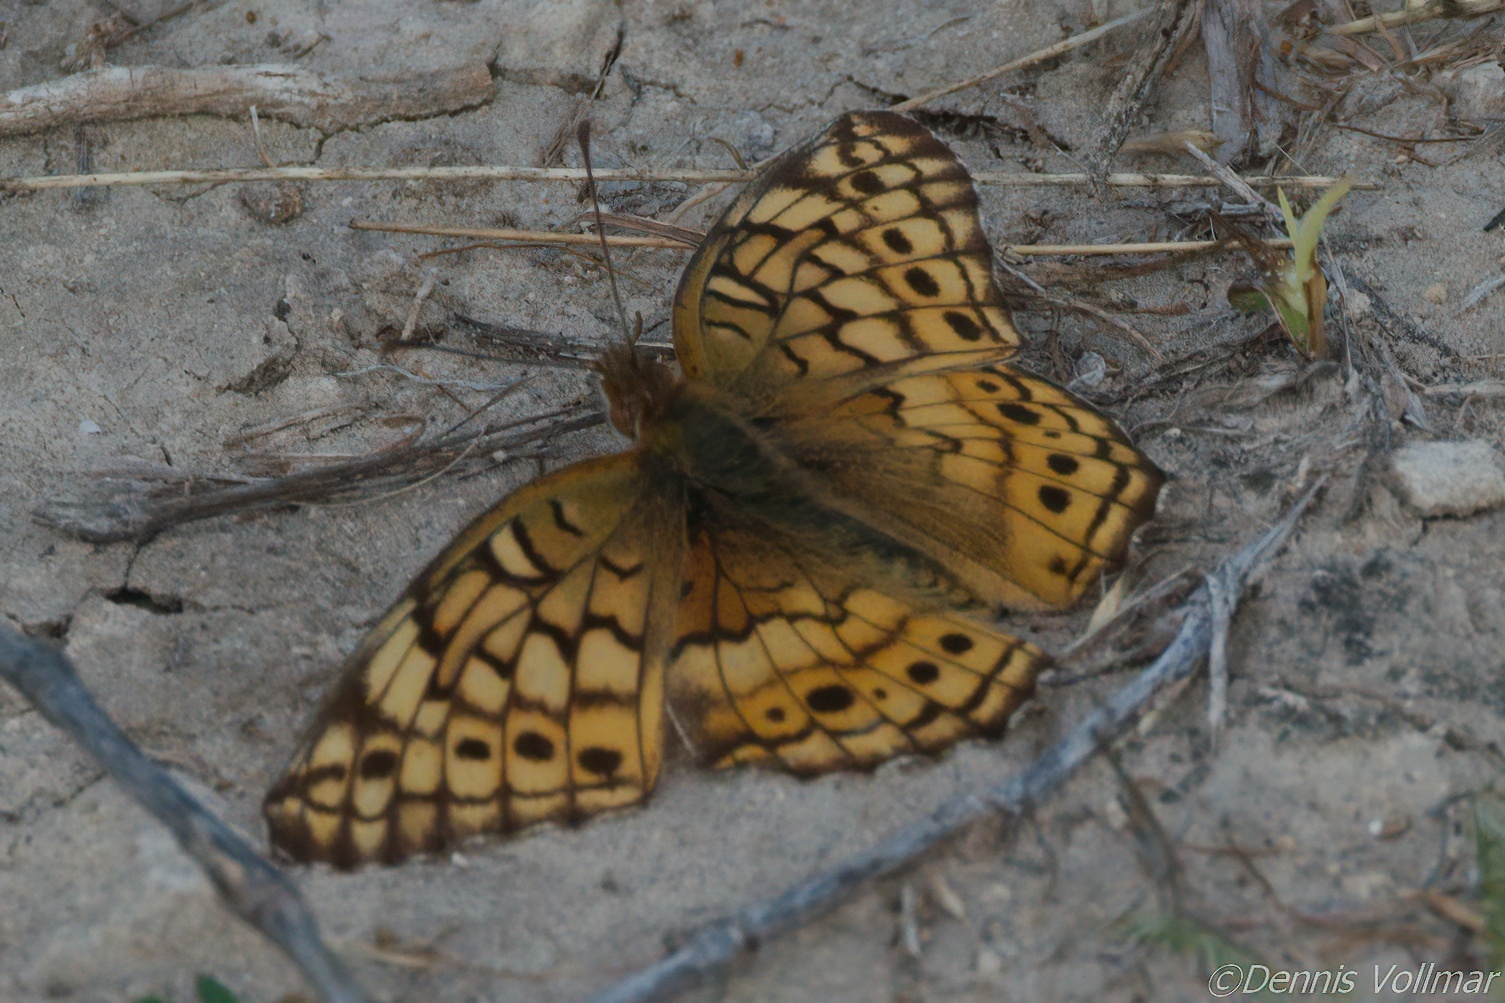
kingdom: Animalia
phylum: Arthropoda
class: Insecta
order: Lepidoptera
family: Nymphalidae
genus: Euptoieta
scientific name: Euptoieta claudia
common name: Variegated fritillary
